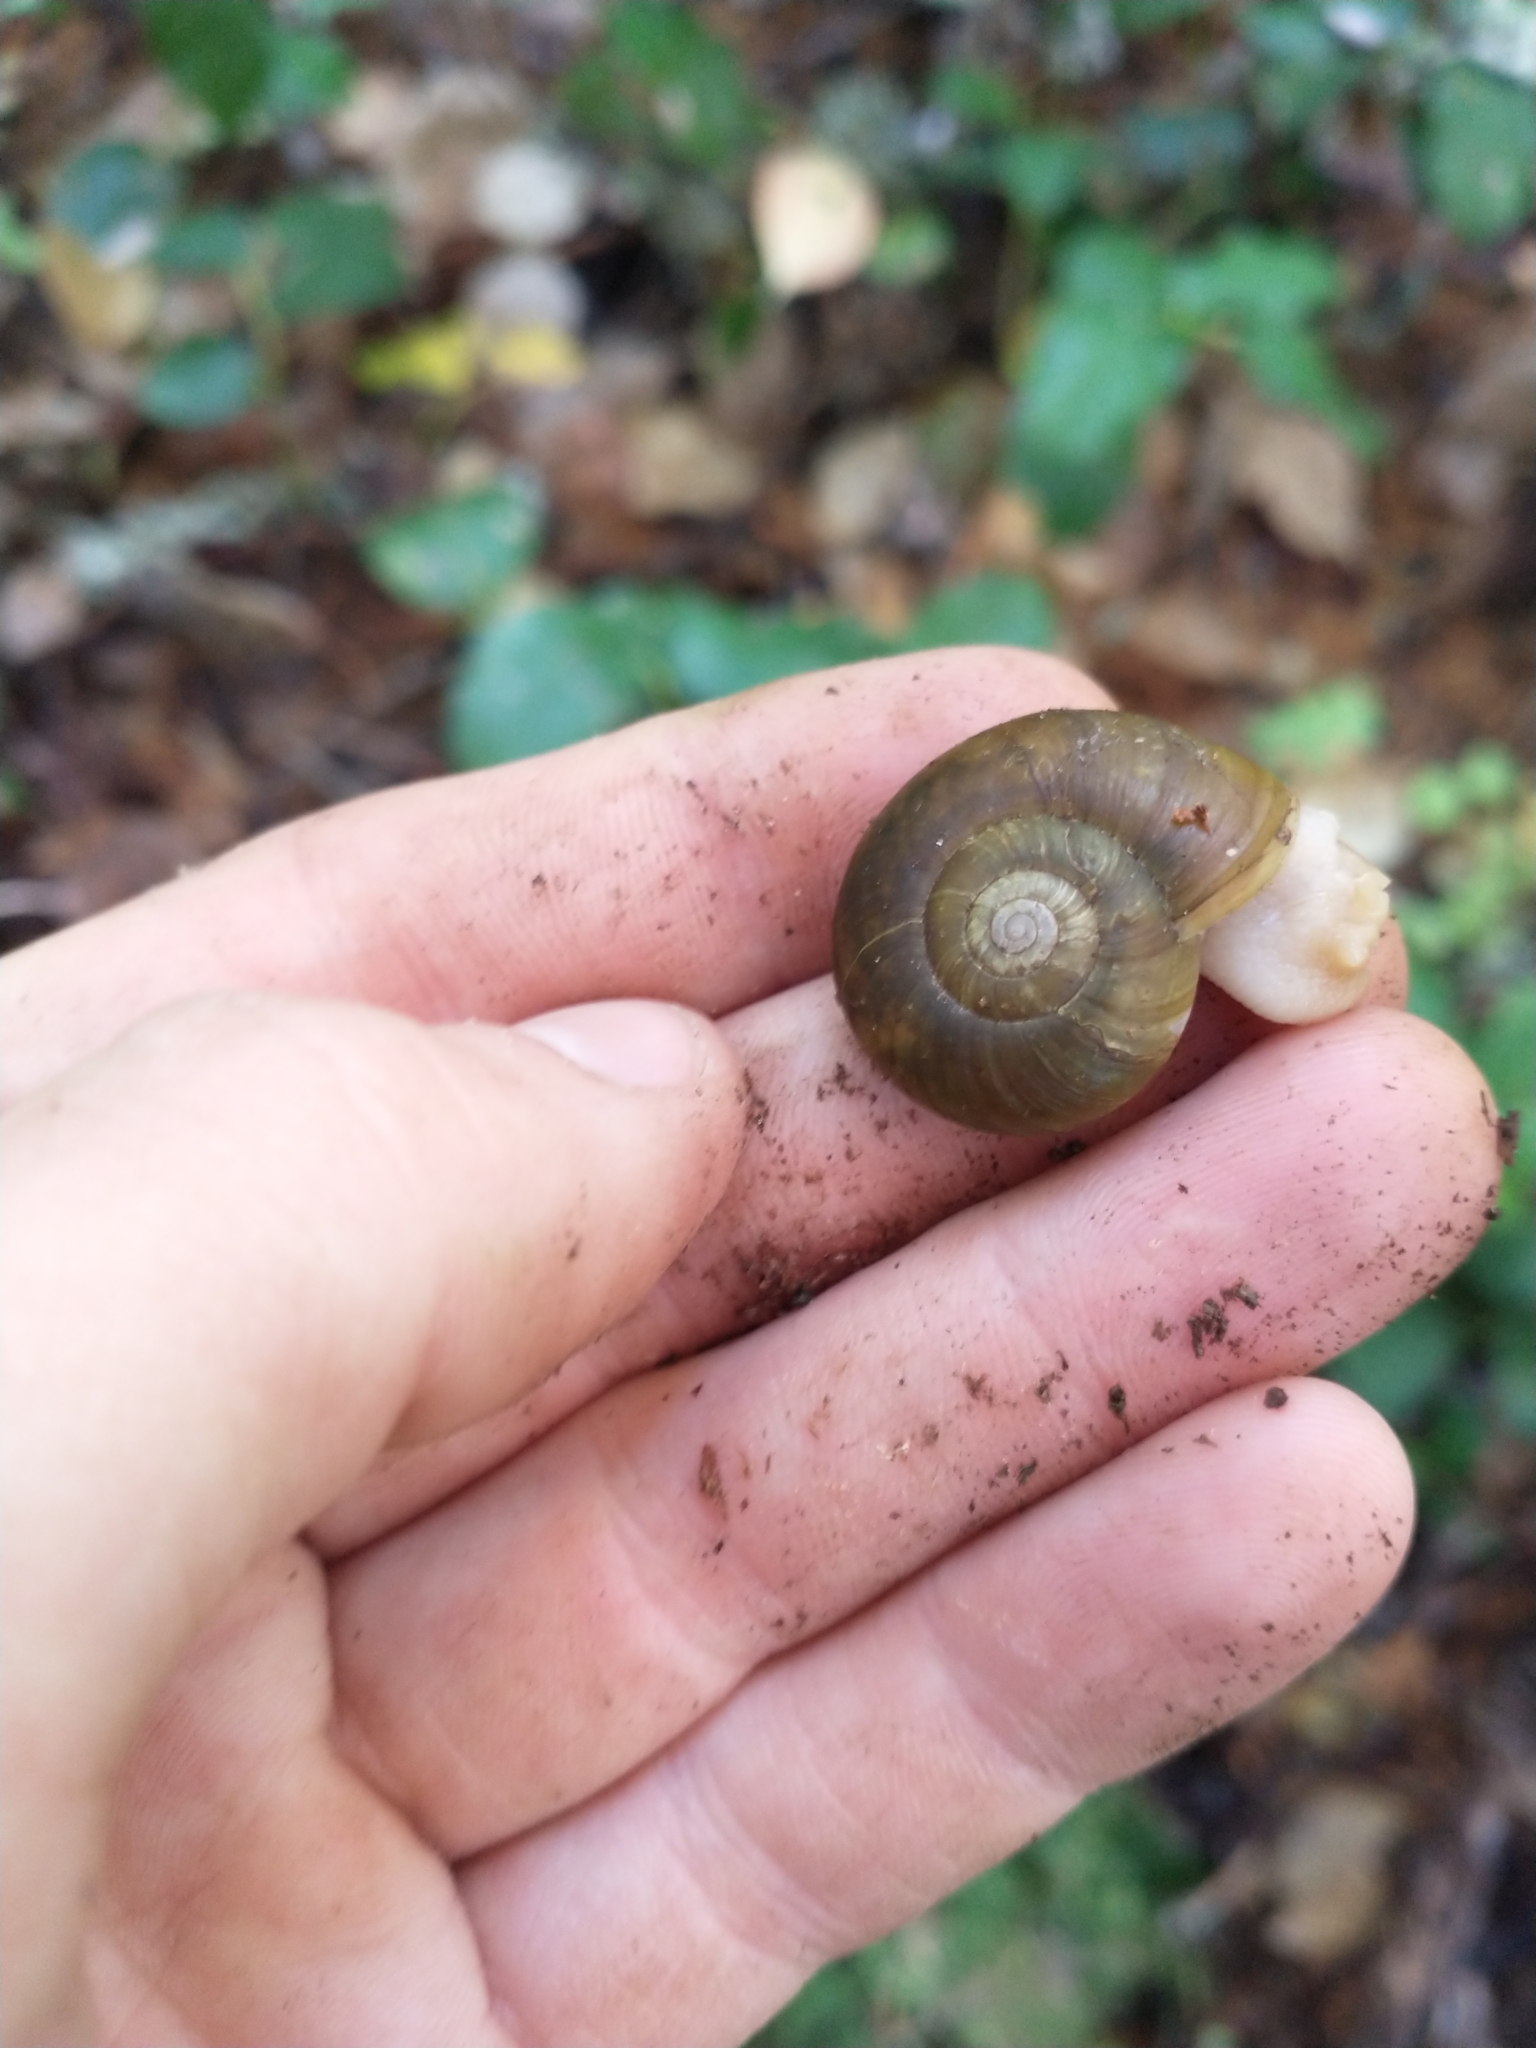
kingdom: Animalia
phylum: Mollusca
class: Gastropoda
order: Stylommatophora
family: Haplotrematidae
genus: Haplotrema
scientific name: Haplotrema vancouverense
